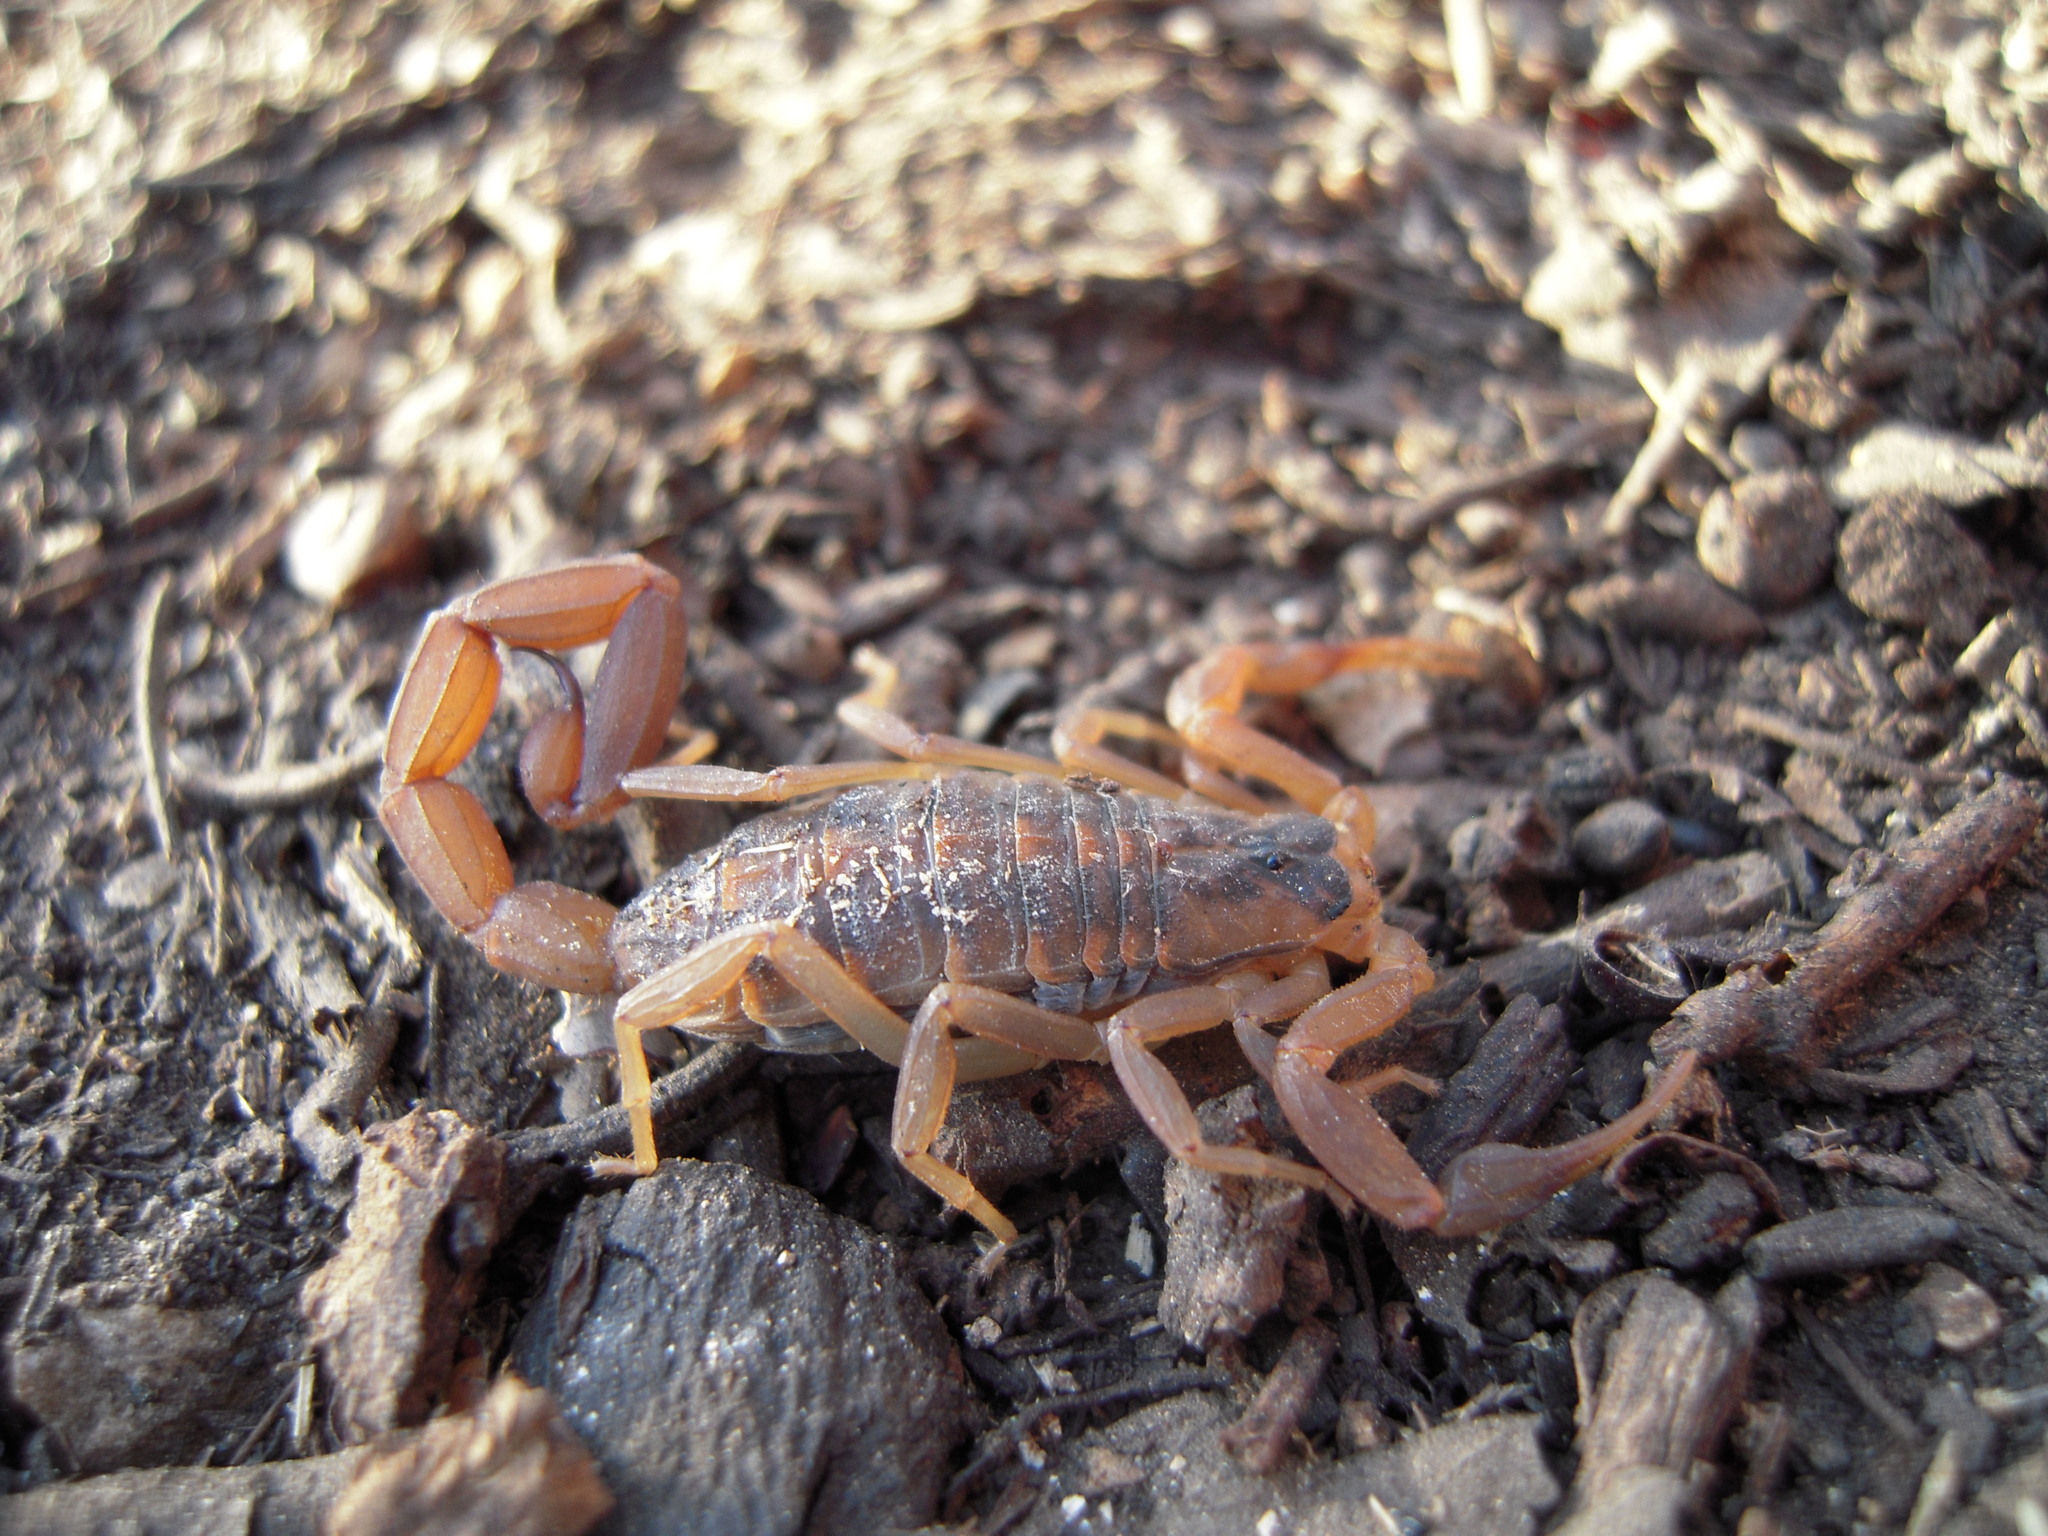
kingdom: Animalia
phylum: Arthropoda
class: Arachnida
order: Scorpiones
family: Buthidae
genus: Centruroides
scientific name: Centruroides vittatus
